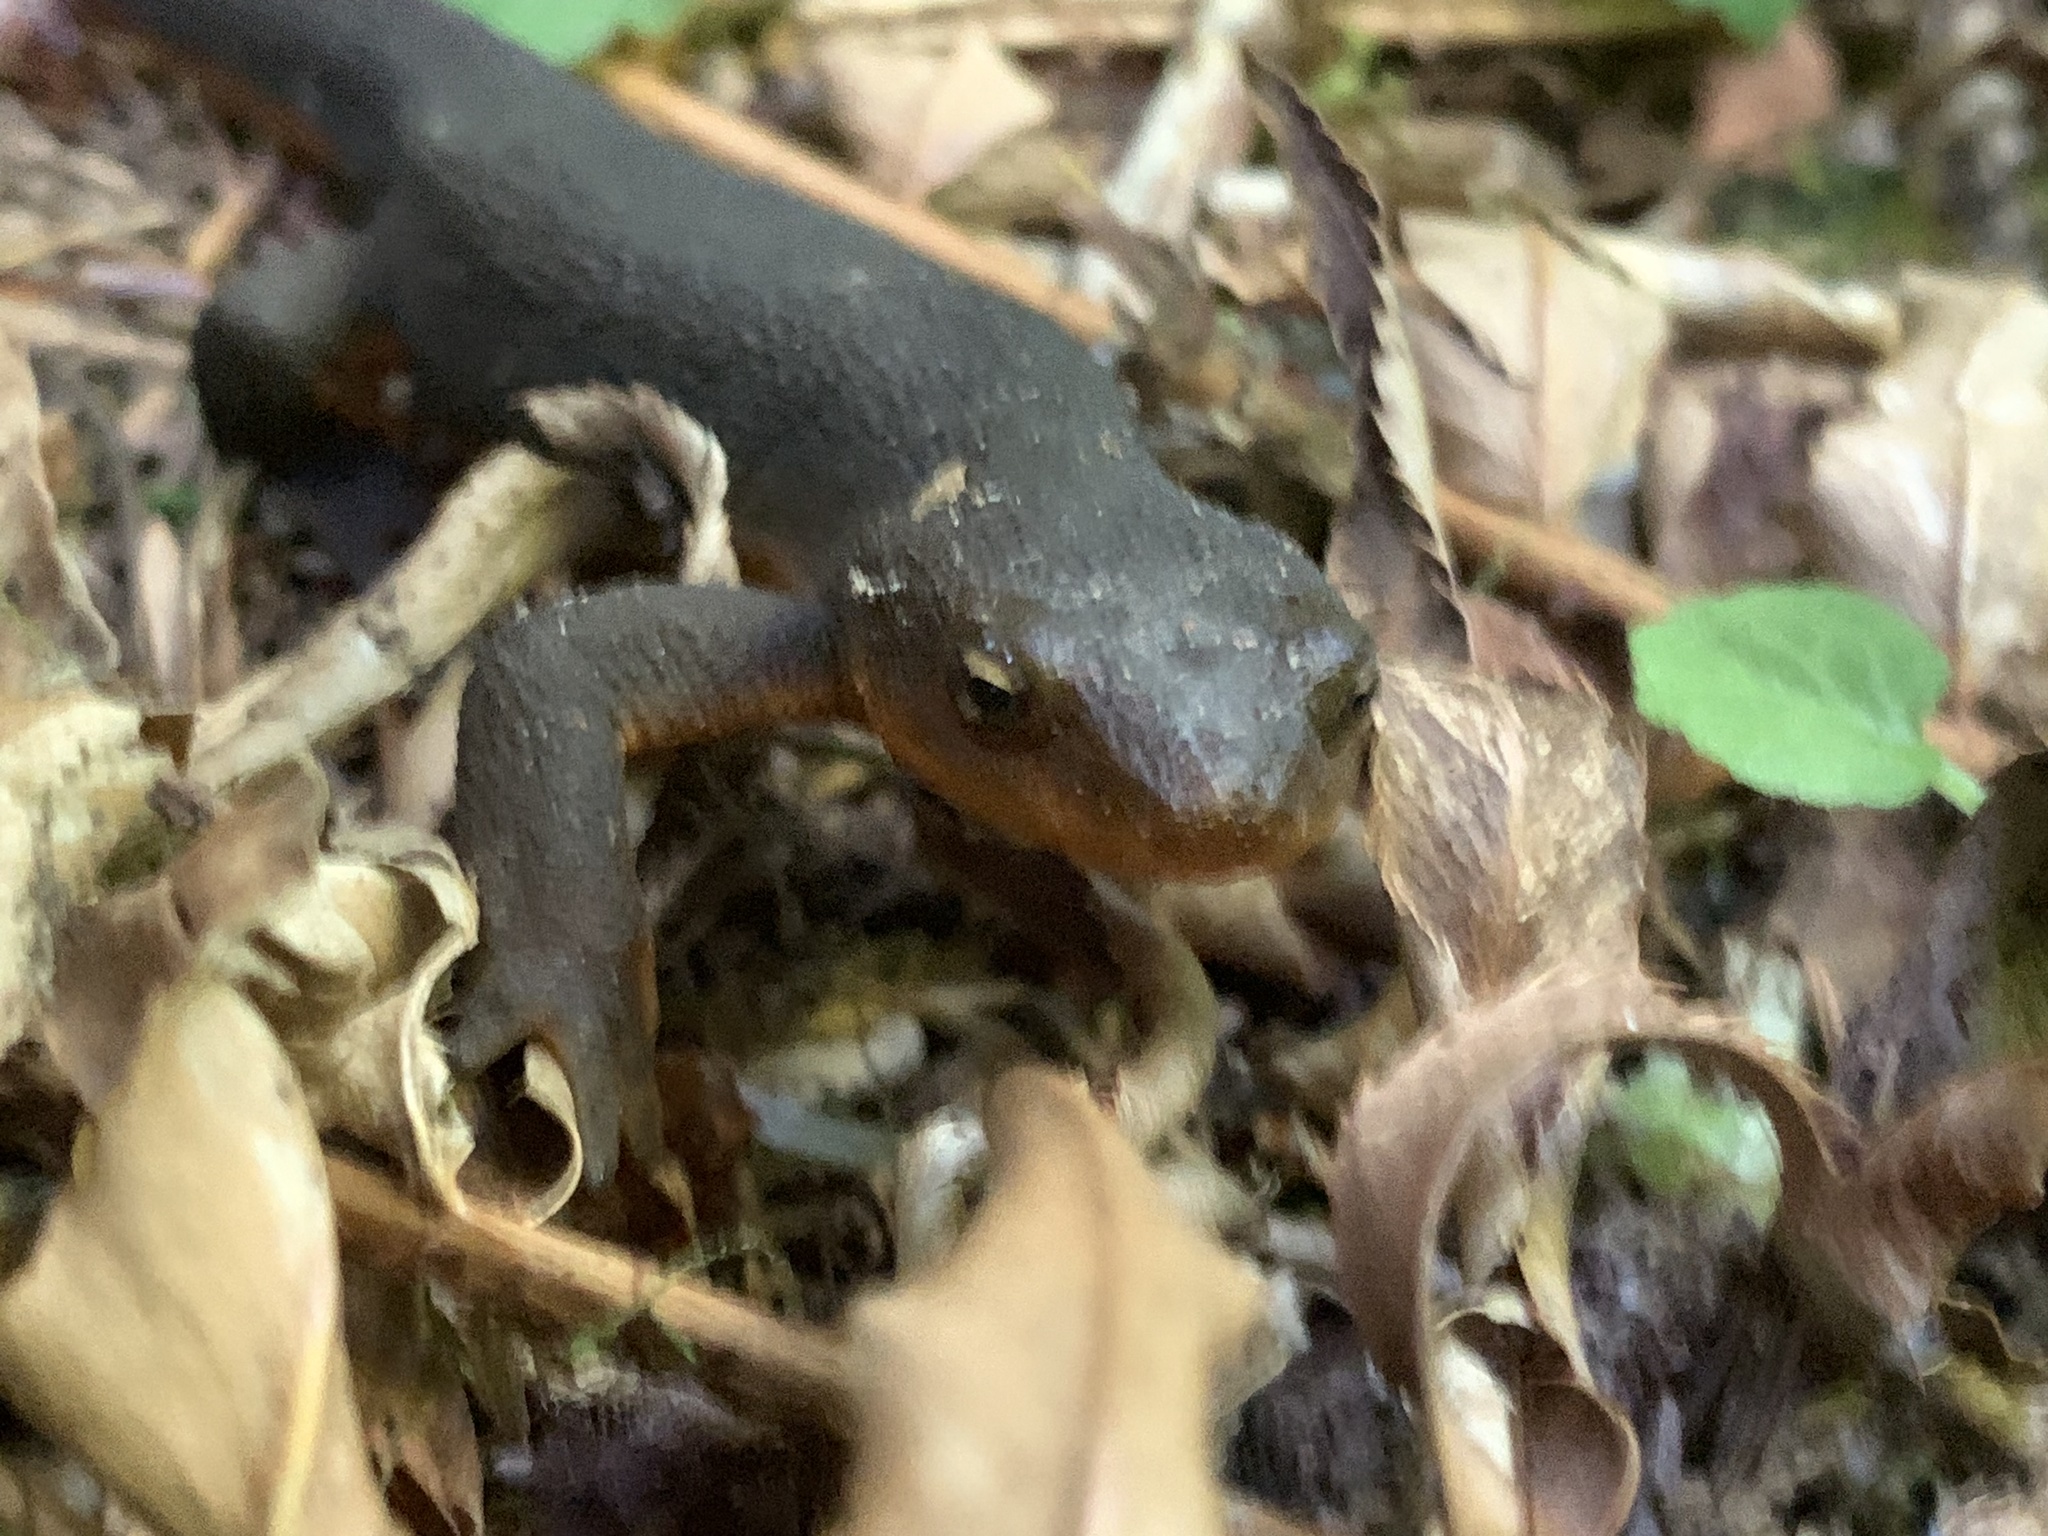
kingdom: Animalia
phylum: Chordata
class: Amphibia
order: Caudata
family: Salamandridae
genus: Taricha
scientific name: Taricha granulosa
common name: Roughskin newt
